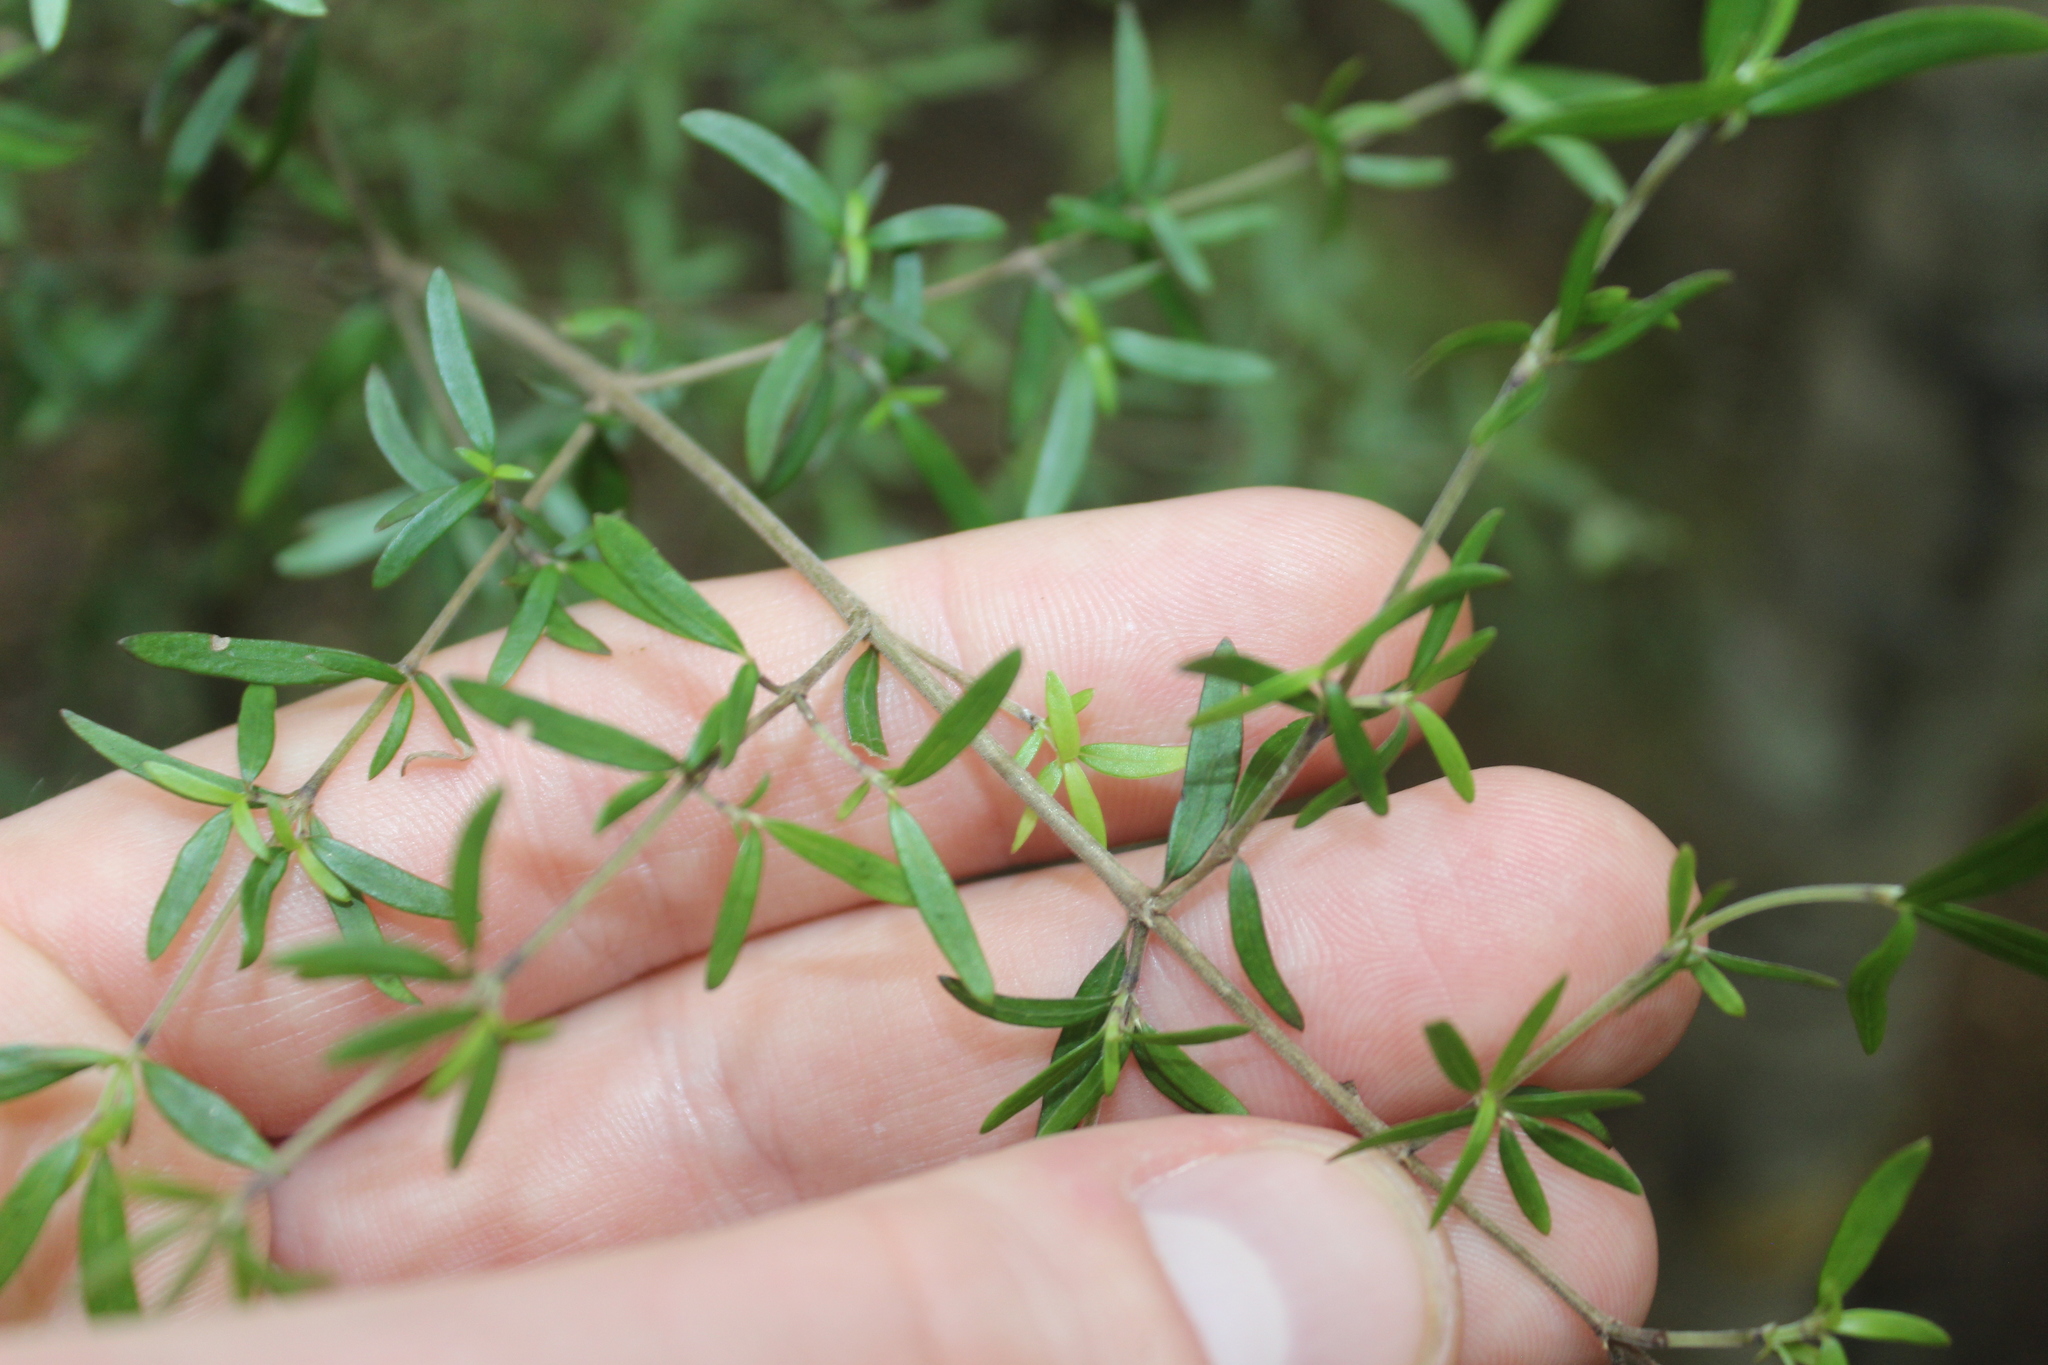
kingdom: Plantae
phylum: Tracheophyta
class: Magnoliopsida
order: Gentianales
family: Rubiaceae
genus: Coprosma
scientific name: Coprosma linariifolia
